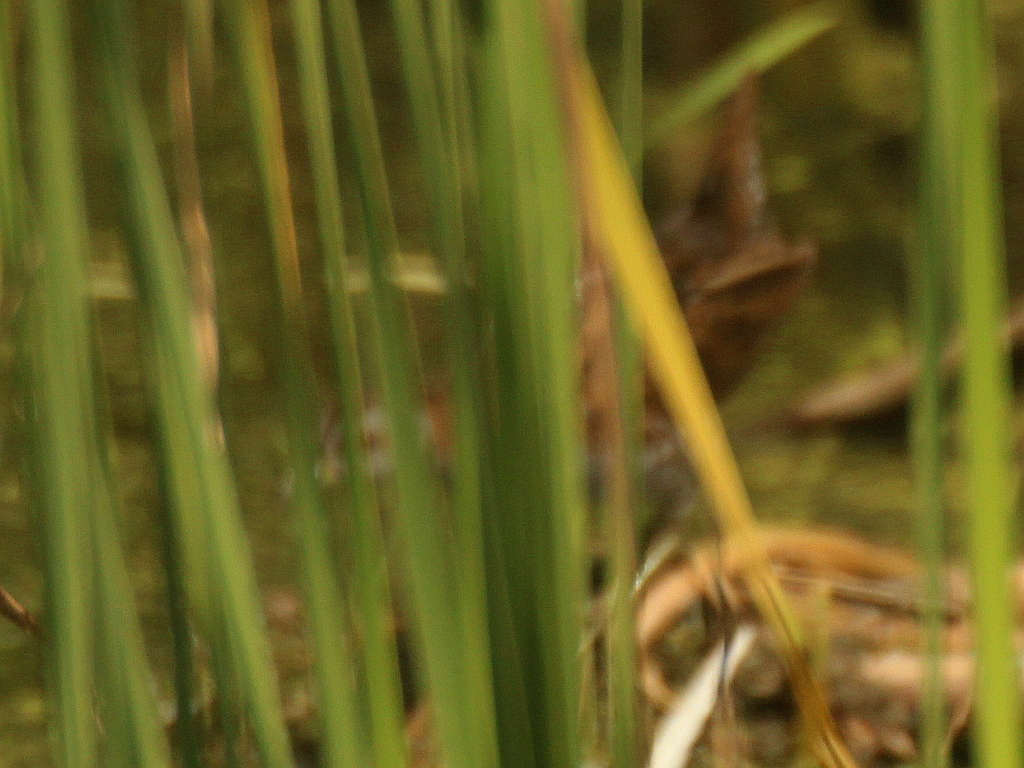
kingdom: Animalia
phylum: Chordata
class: Aves
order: Gruiformes
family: Rallidae
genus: Porzana
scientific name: Porzana pusilla
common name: Baillon's crake
